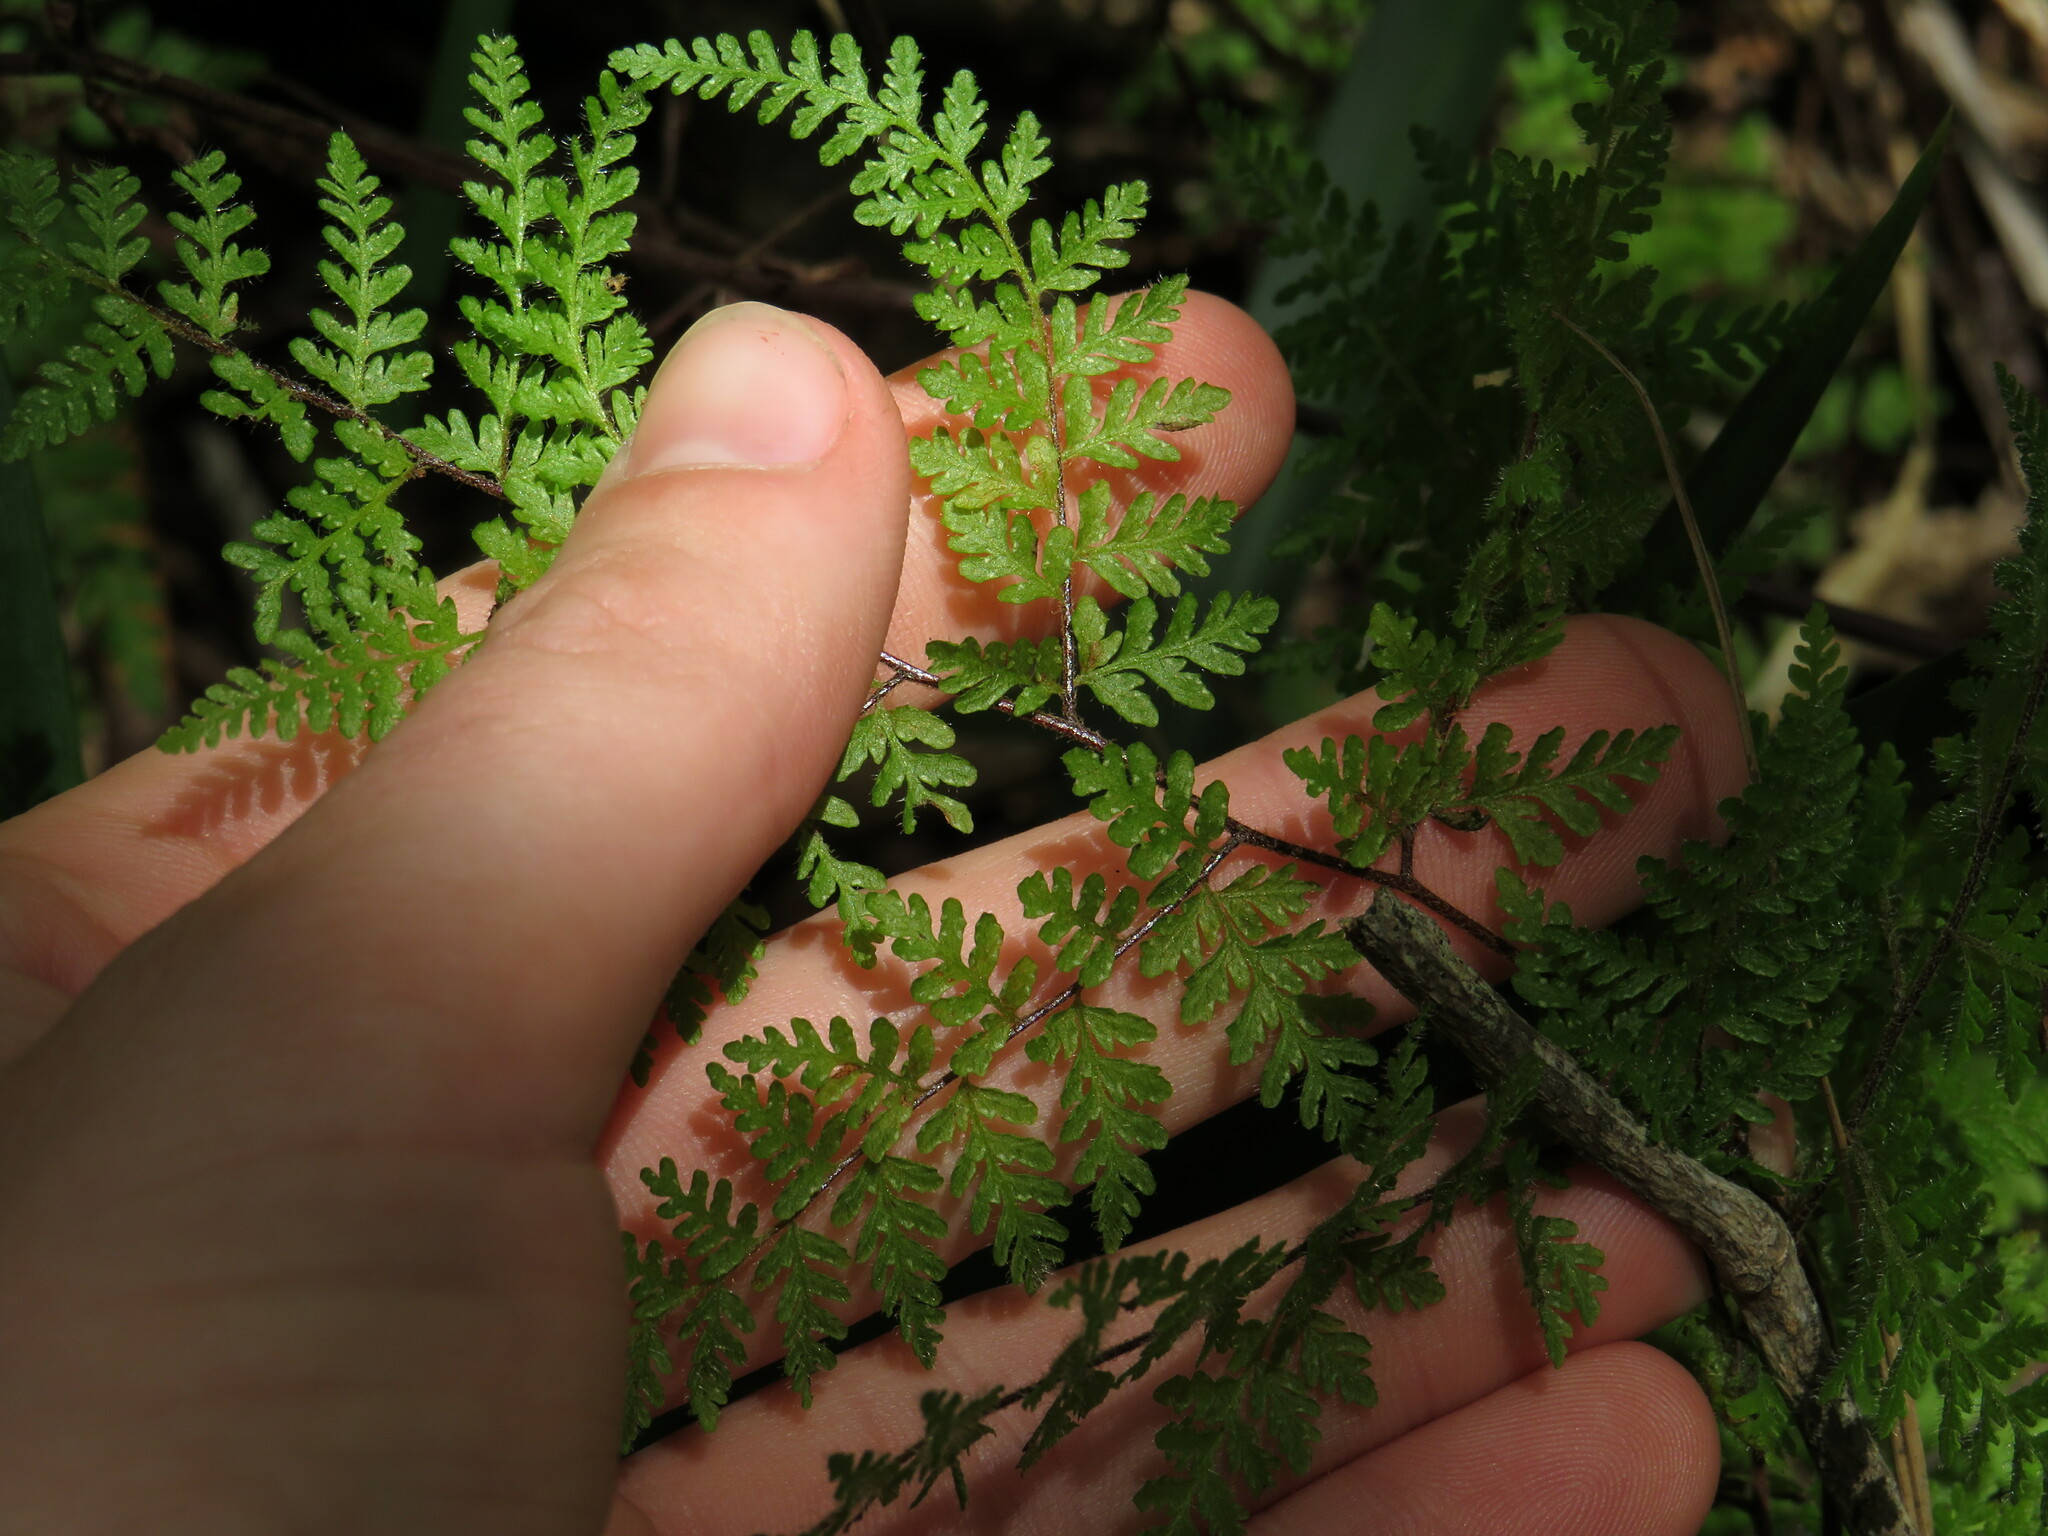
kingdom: Plantae
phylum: Tracheophyta
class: Polypodiopsida
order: Polypodiales
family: Pteridaceae
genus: Cheilanthes
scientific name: Cheilanthes bergiana
